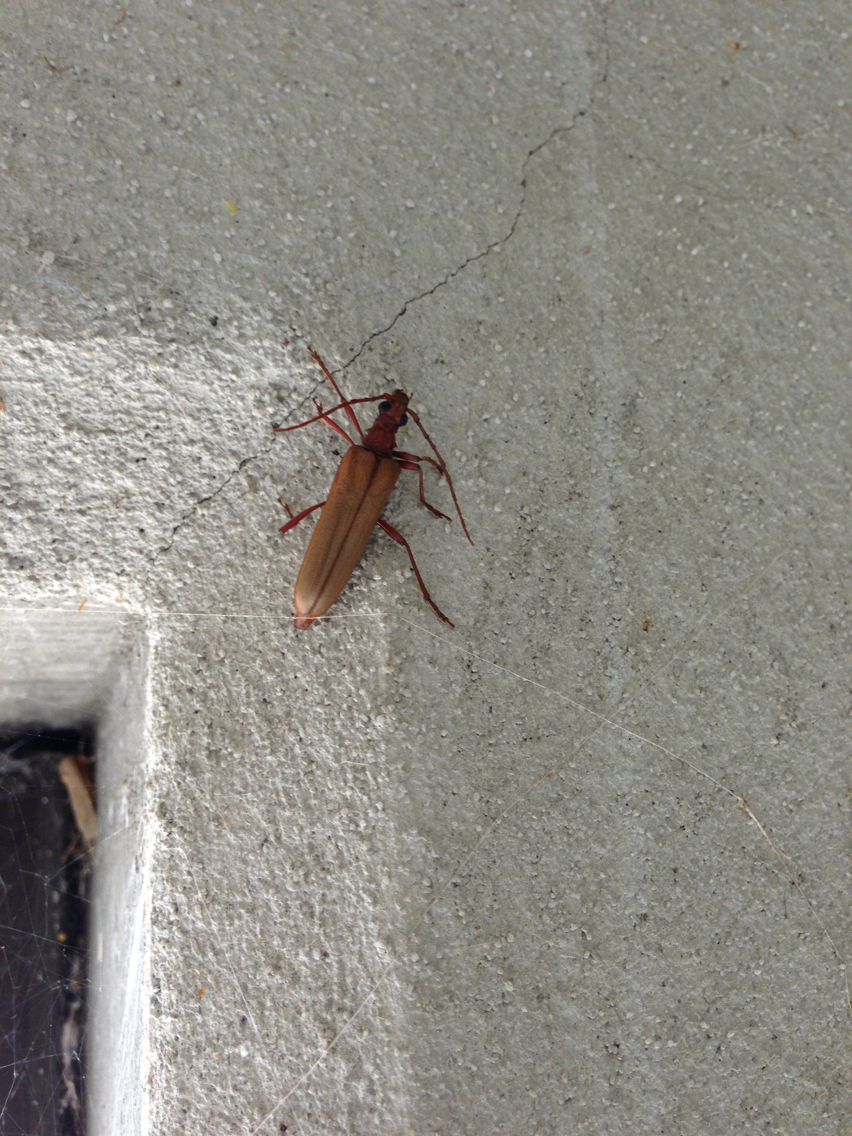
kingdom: Animalia
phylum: Arthropoda
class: Insecta
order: Coleoptera
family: Cerambycidae
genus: Centrodera
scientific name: Centrodera decolorata
